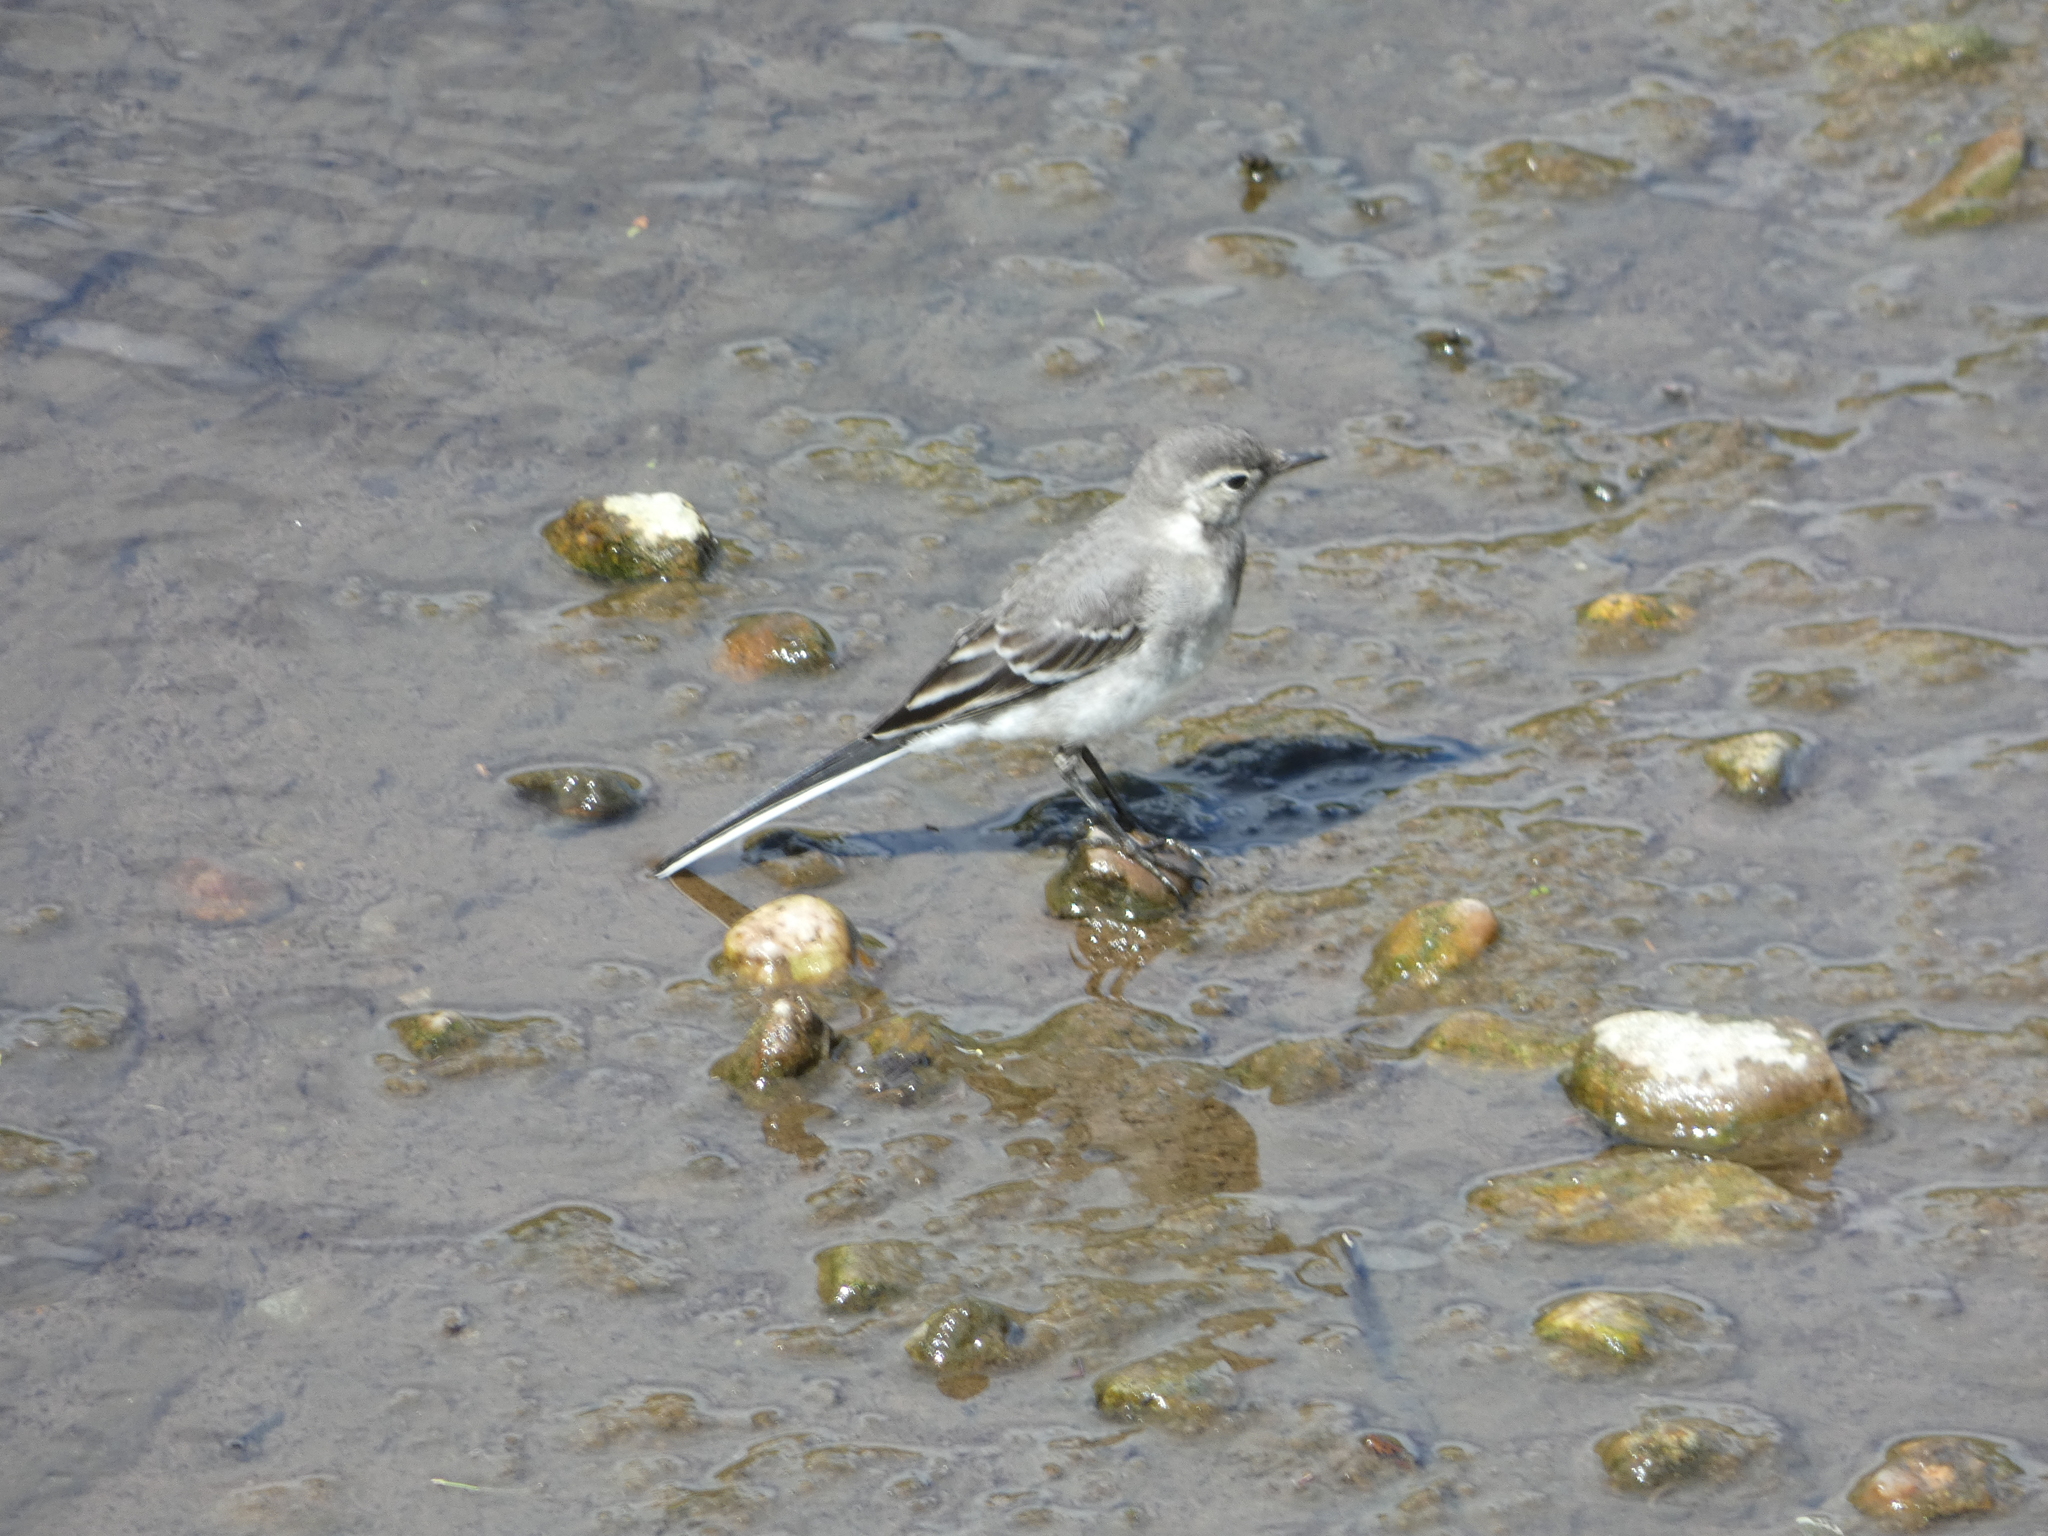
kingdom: Animalia
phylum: Chordata
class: Aves
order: Passeriformes
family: Motacillidae
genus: Motacilla
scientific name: Motacilla alba
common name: White wagtail
